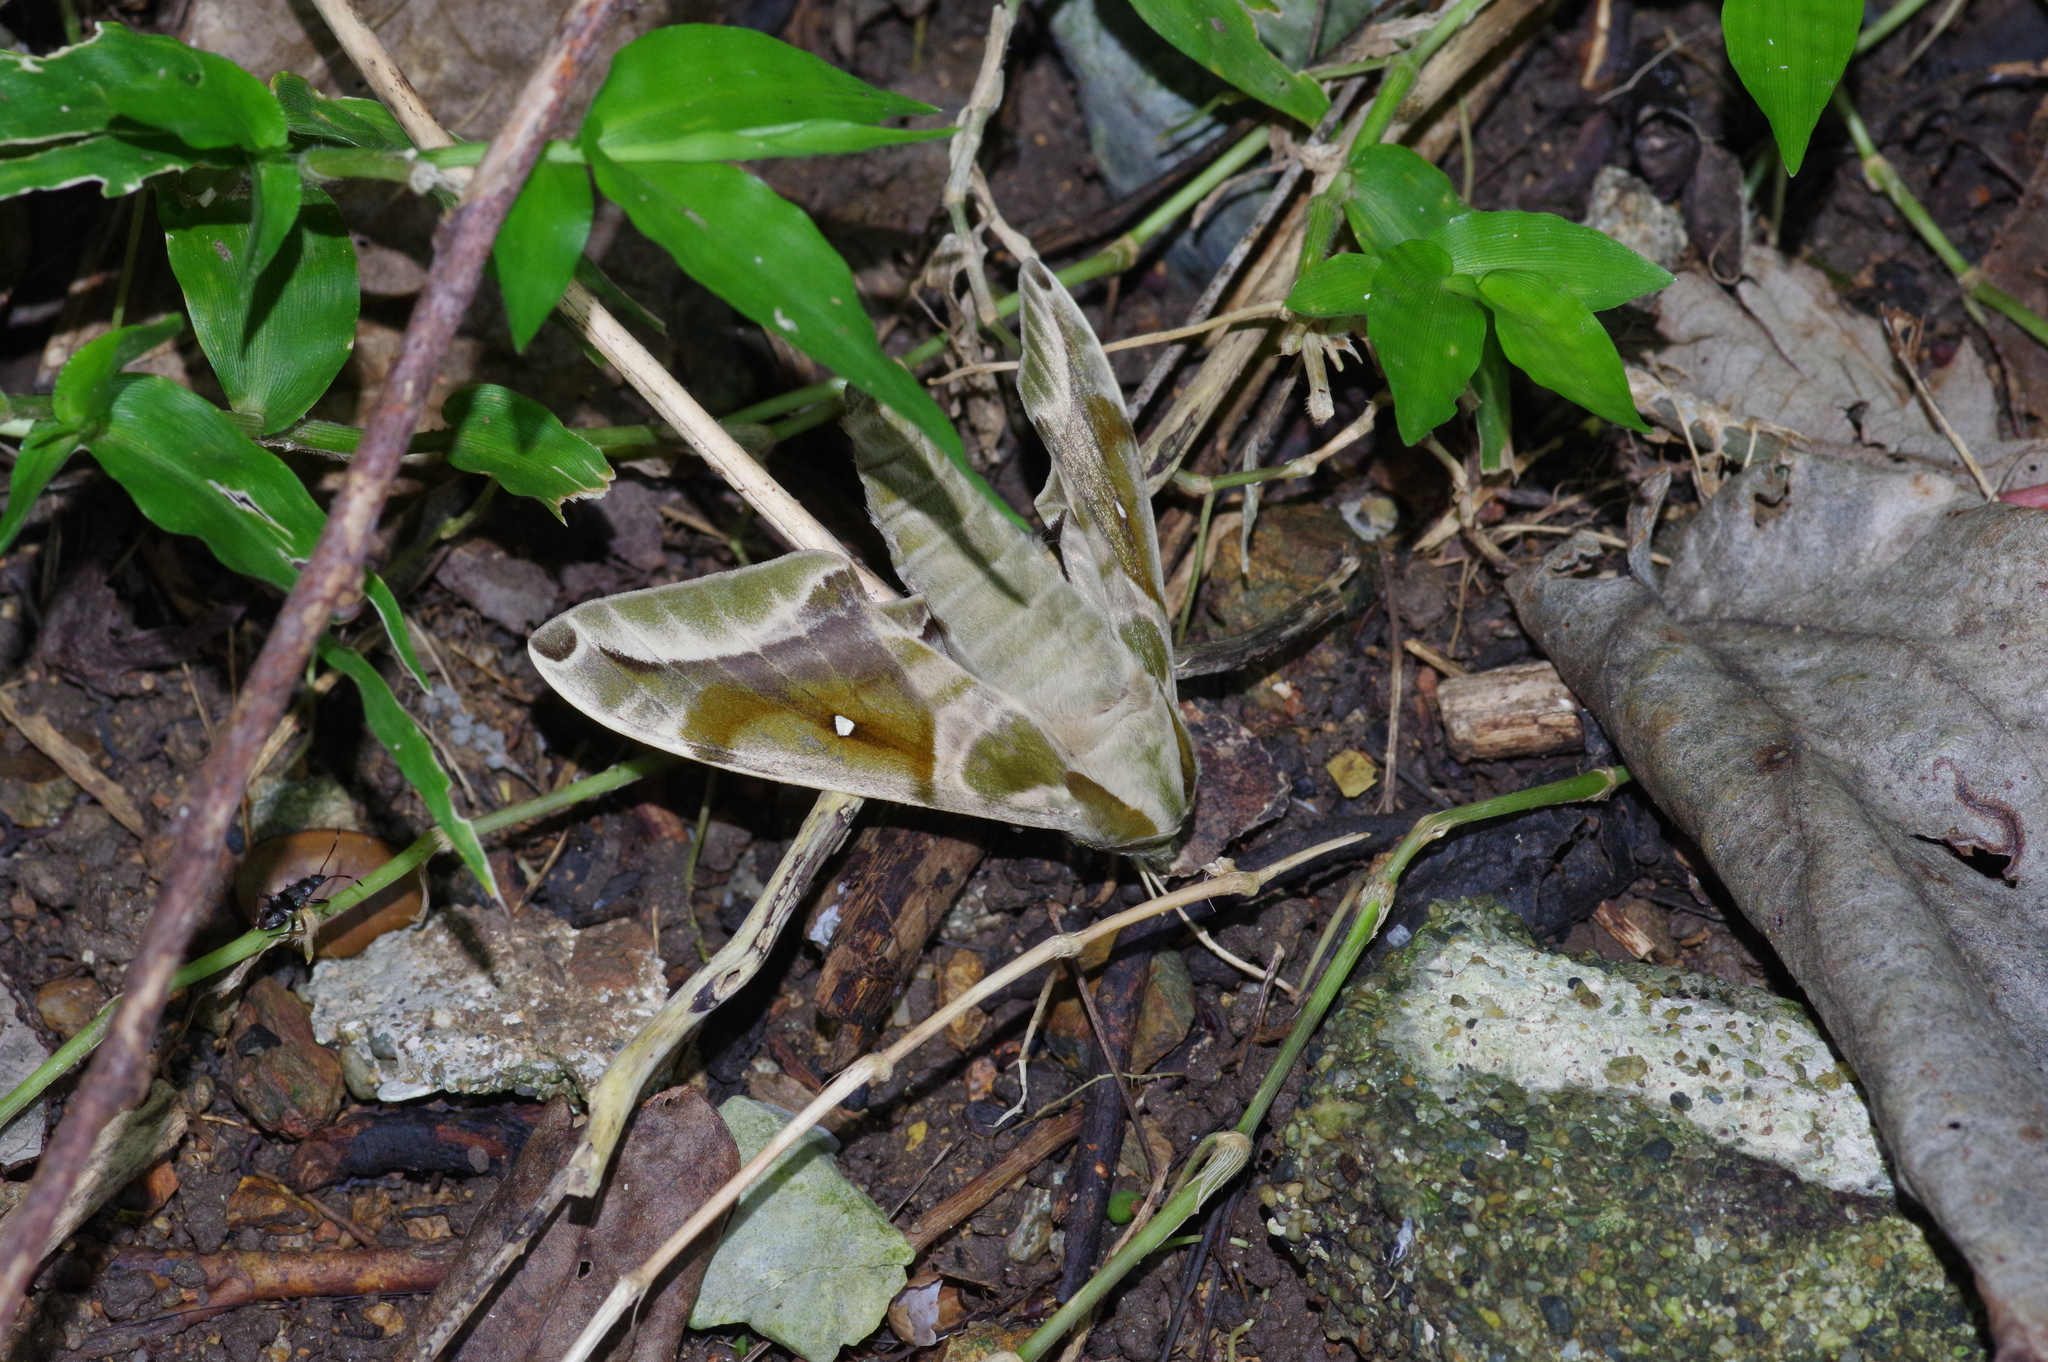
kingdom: Animalia
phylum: Arthropoda
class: Insecta
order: Lepidoptera
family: Sphingidae
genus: Parum
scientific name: Parum colligata
